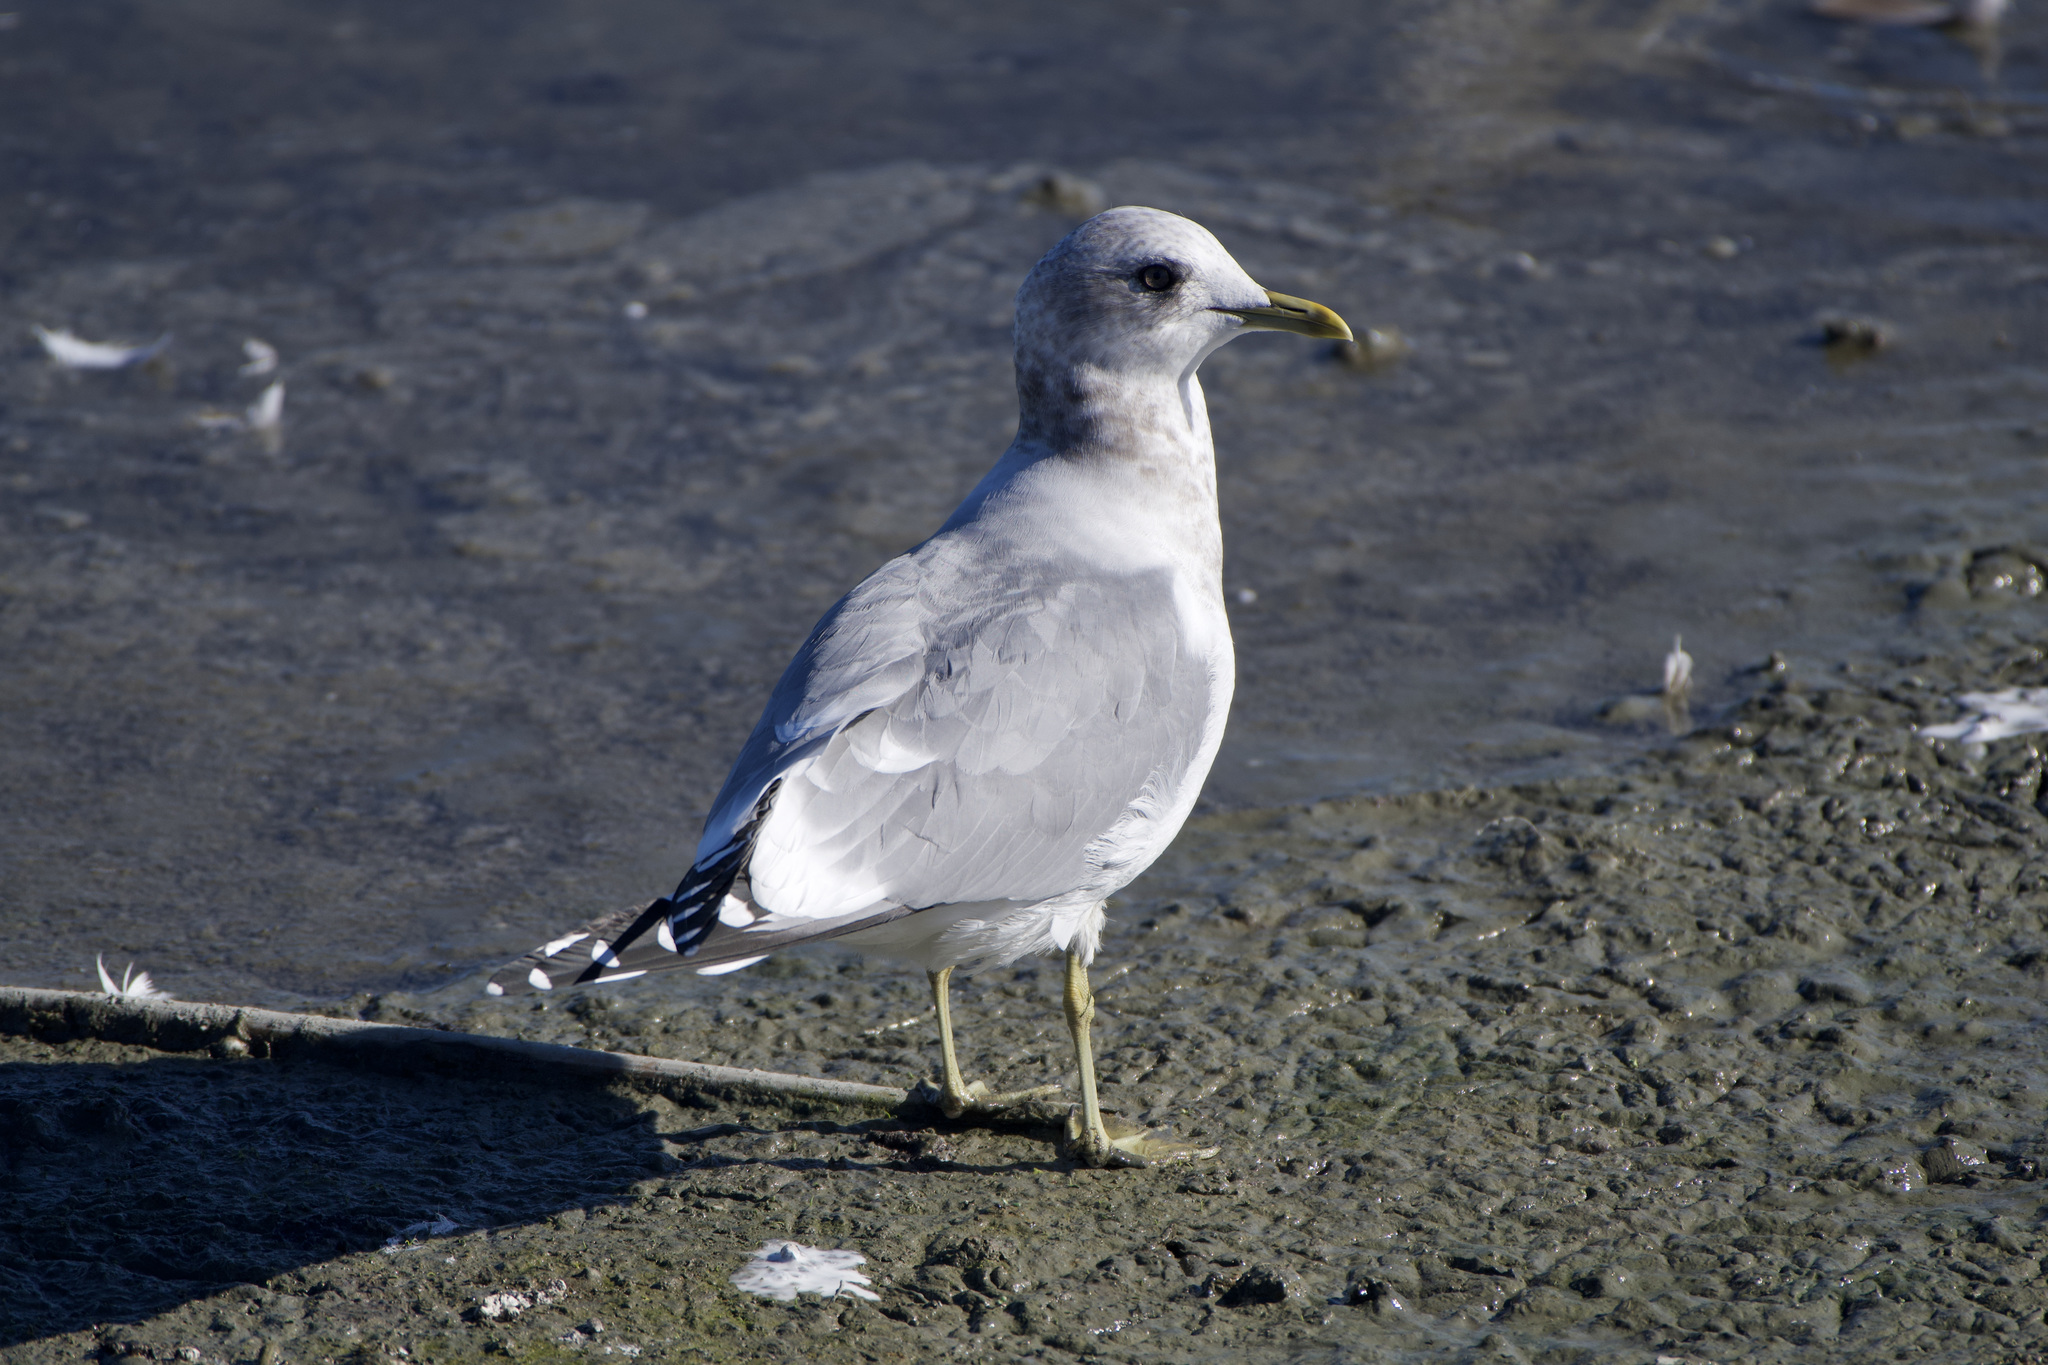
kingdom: Animalia
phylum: Chordata
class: Aves
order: Charadriiformes
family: Laridae
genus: Larus
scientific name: Larus brachyrhynchus
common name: Short-billed gull
